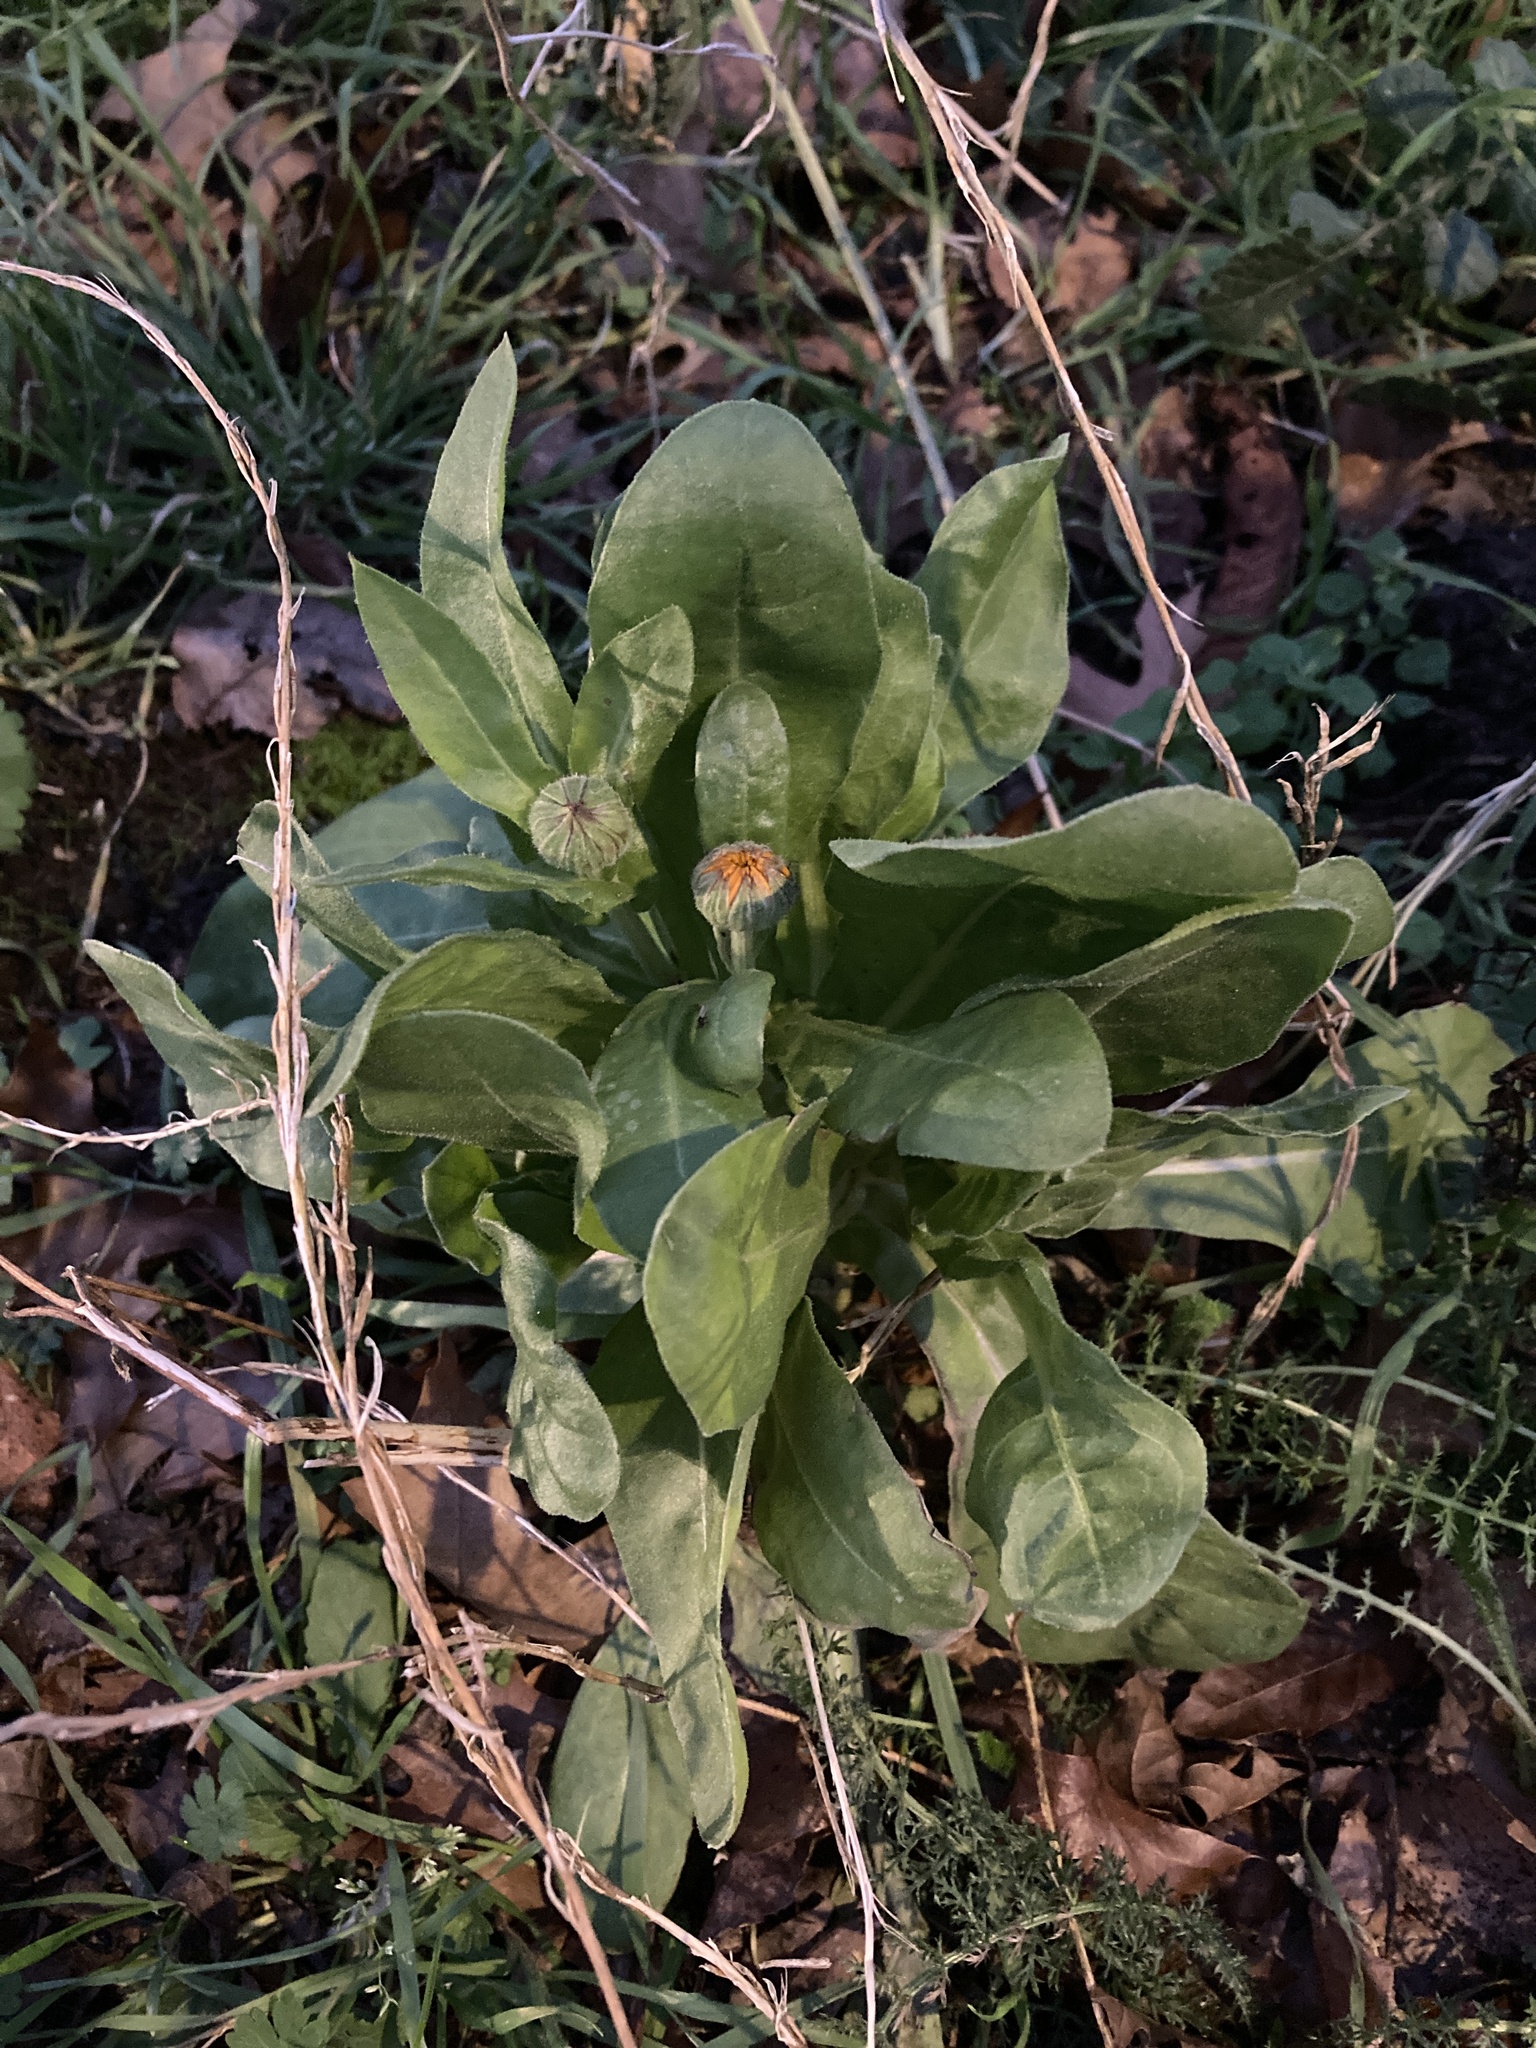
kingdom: Plantae
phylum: Tracheophyta
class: Magnoliopsida
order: Asterales
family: Asteraceae
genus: Calendula
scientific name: Calendula officinalis
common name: Pot marigold
